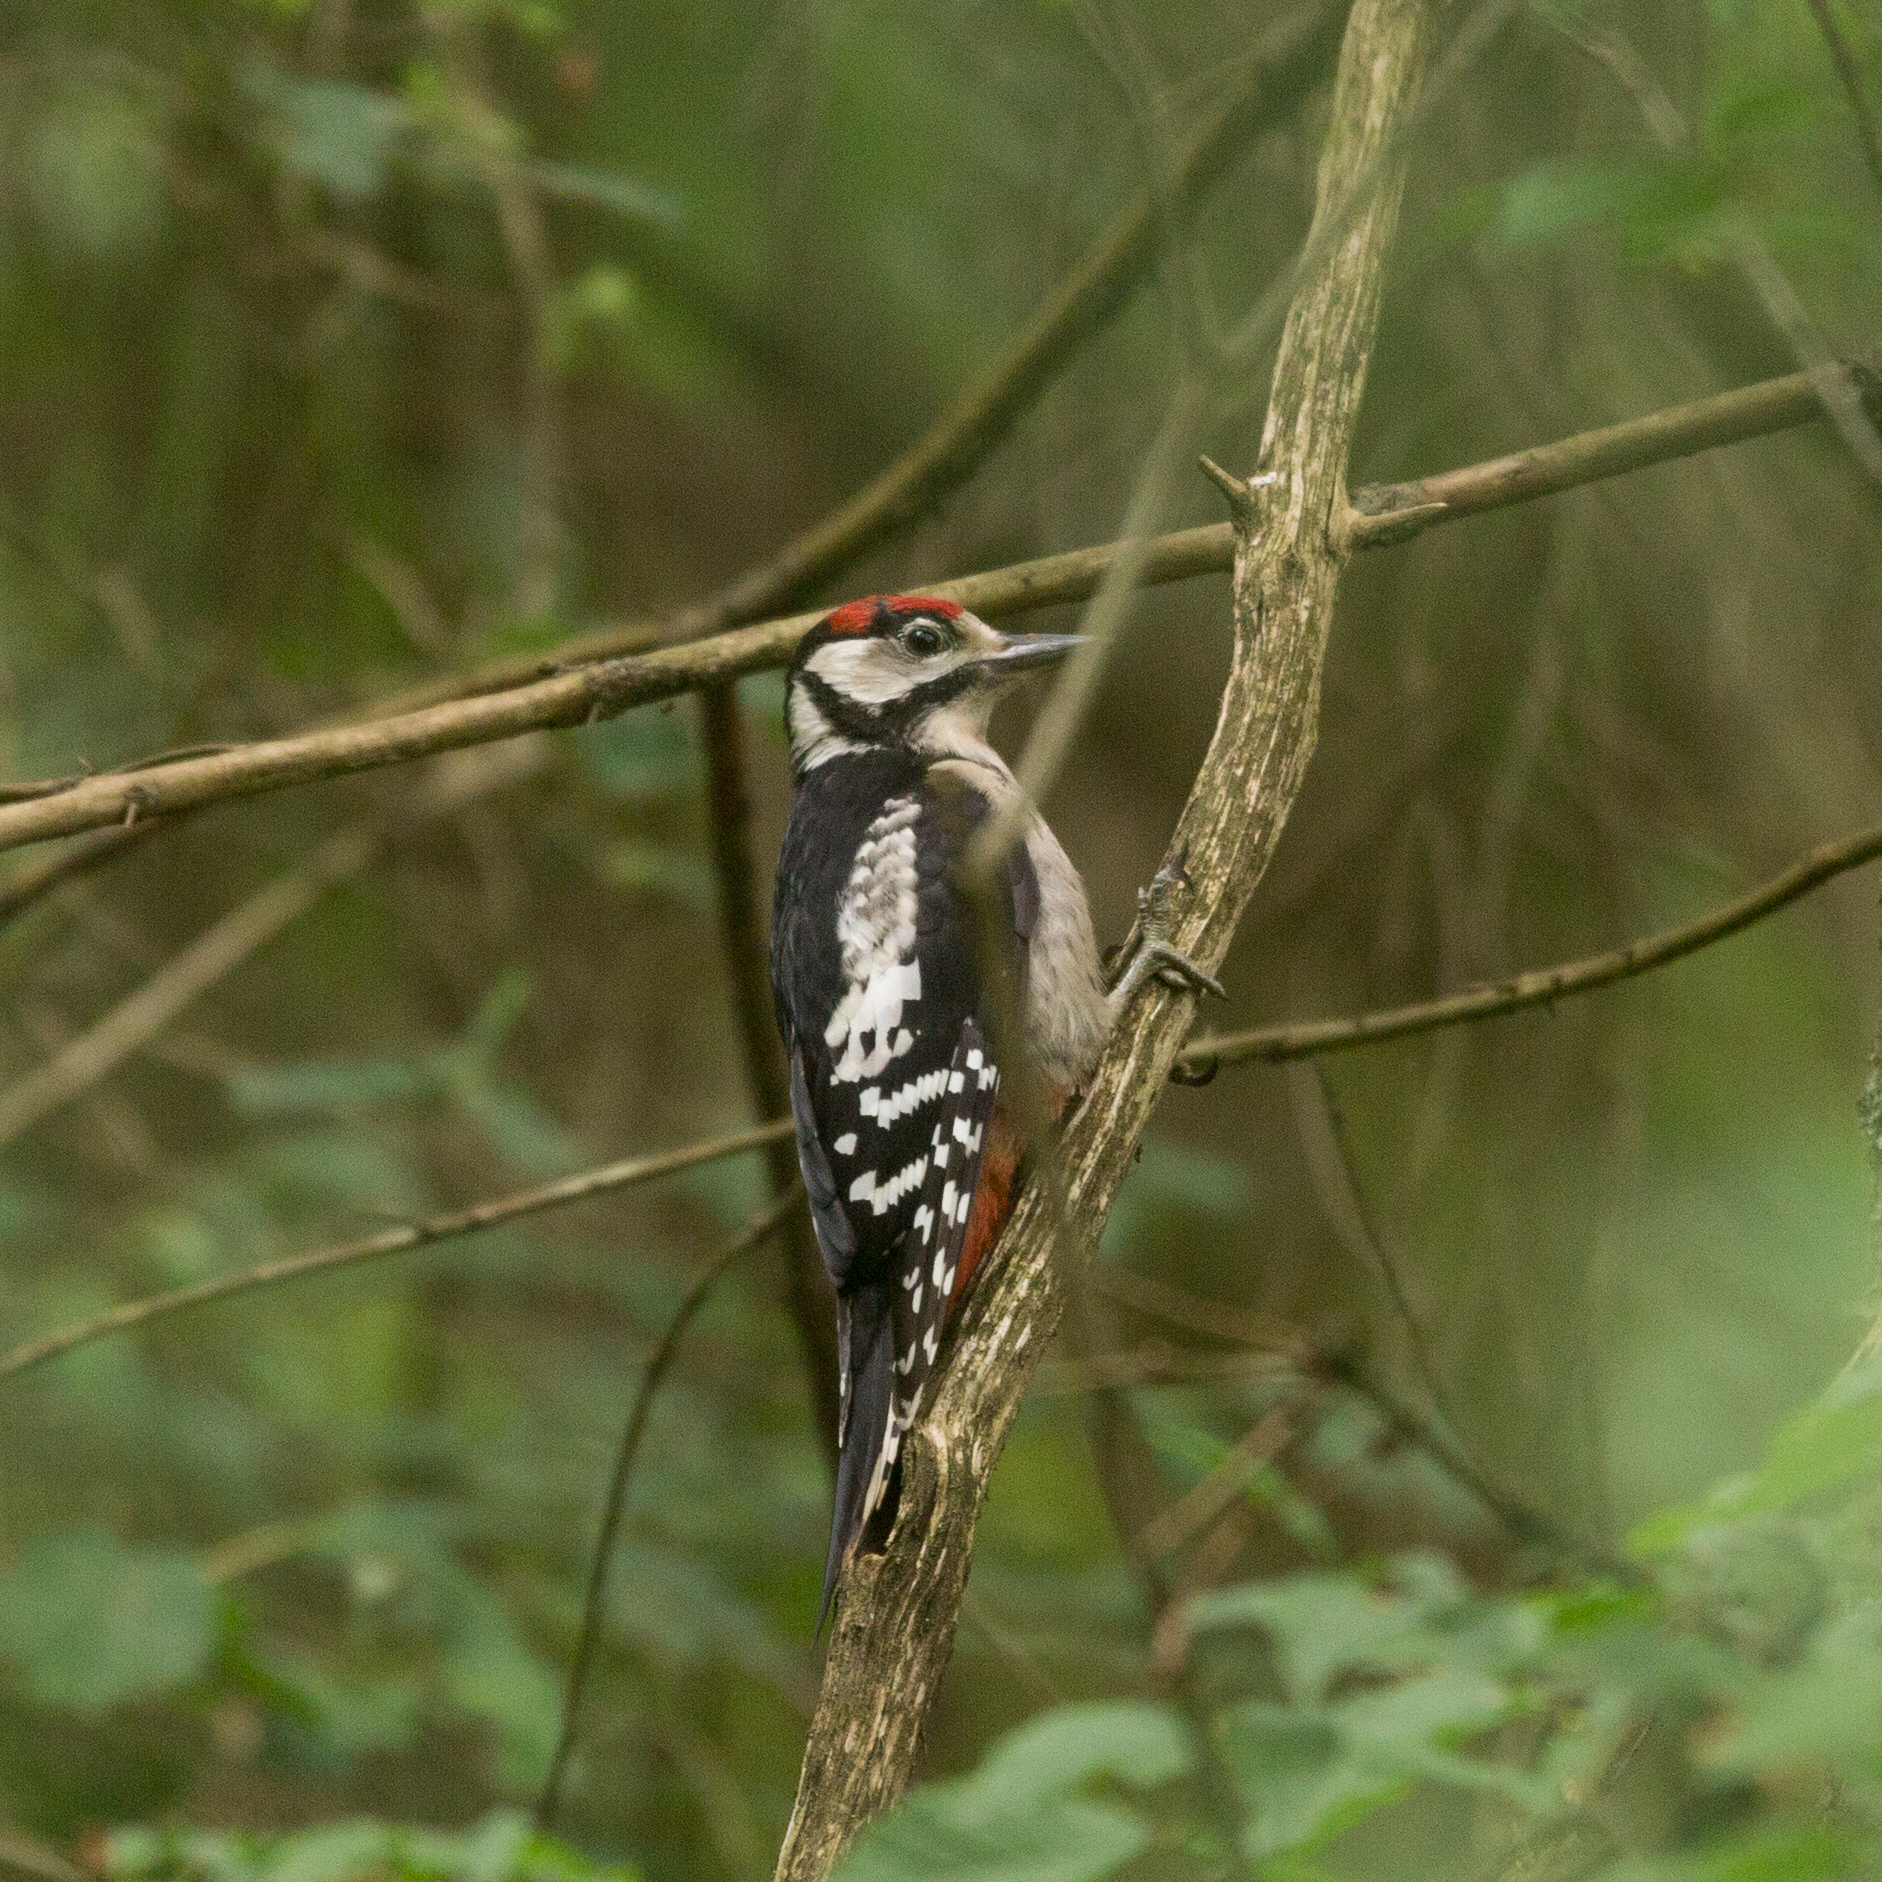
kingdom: Animalia
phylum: Chordata
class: Aves
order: Piciformes
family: Picidae
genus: Dendrocopos
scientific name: Dendrocopos major
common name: Great spotted woodpecker
